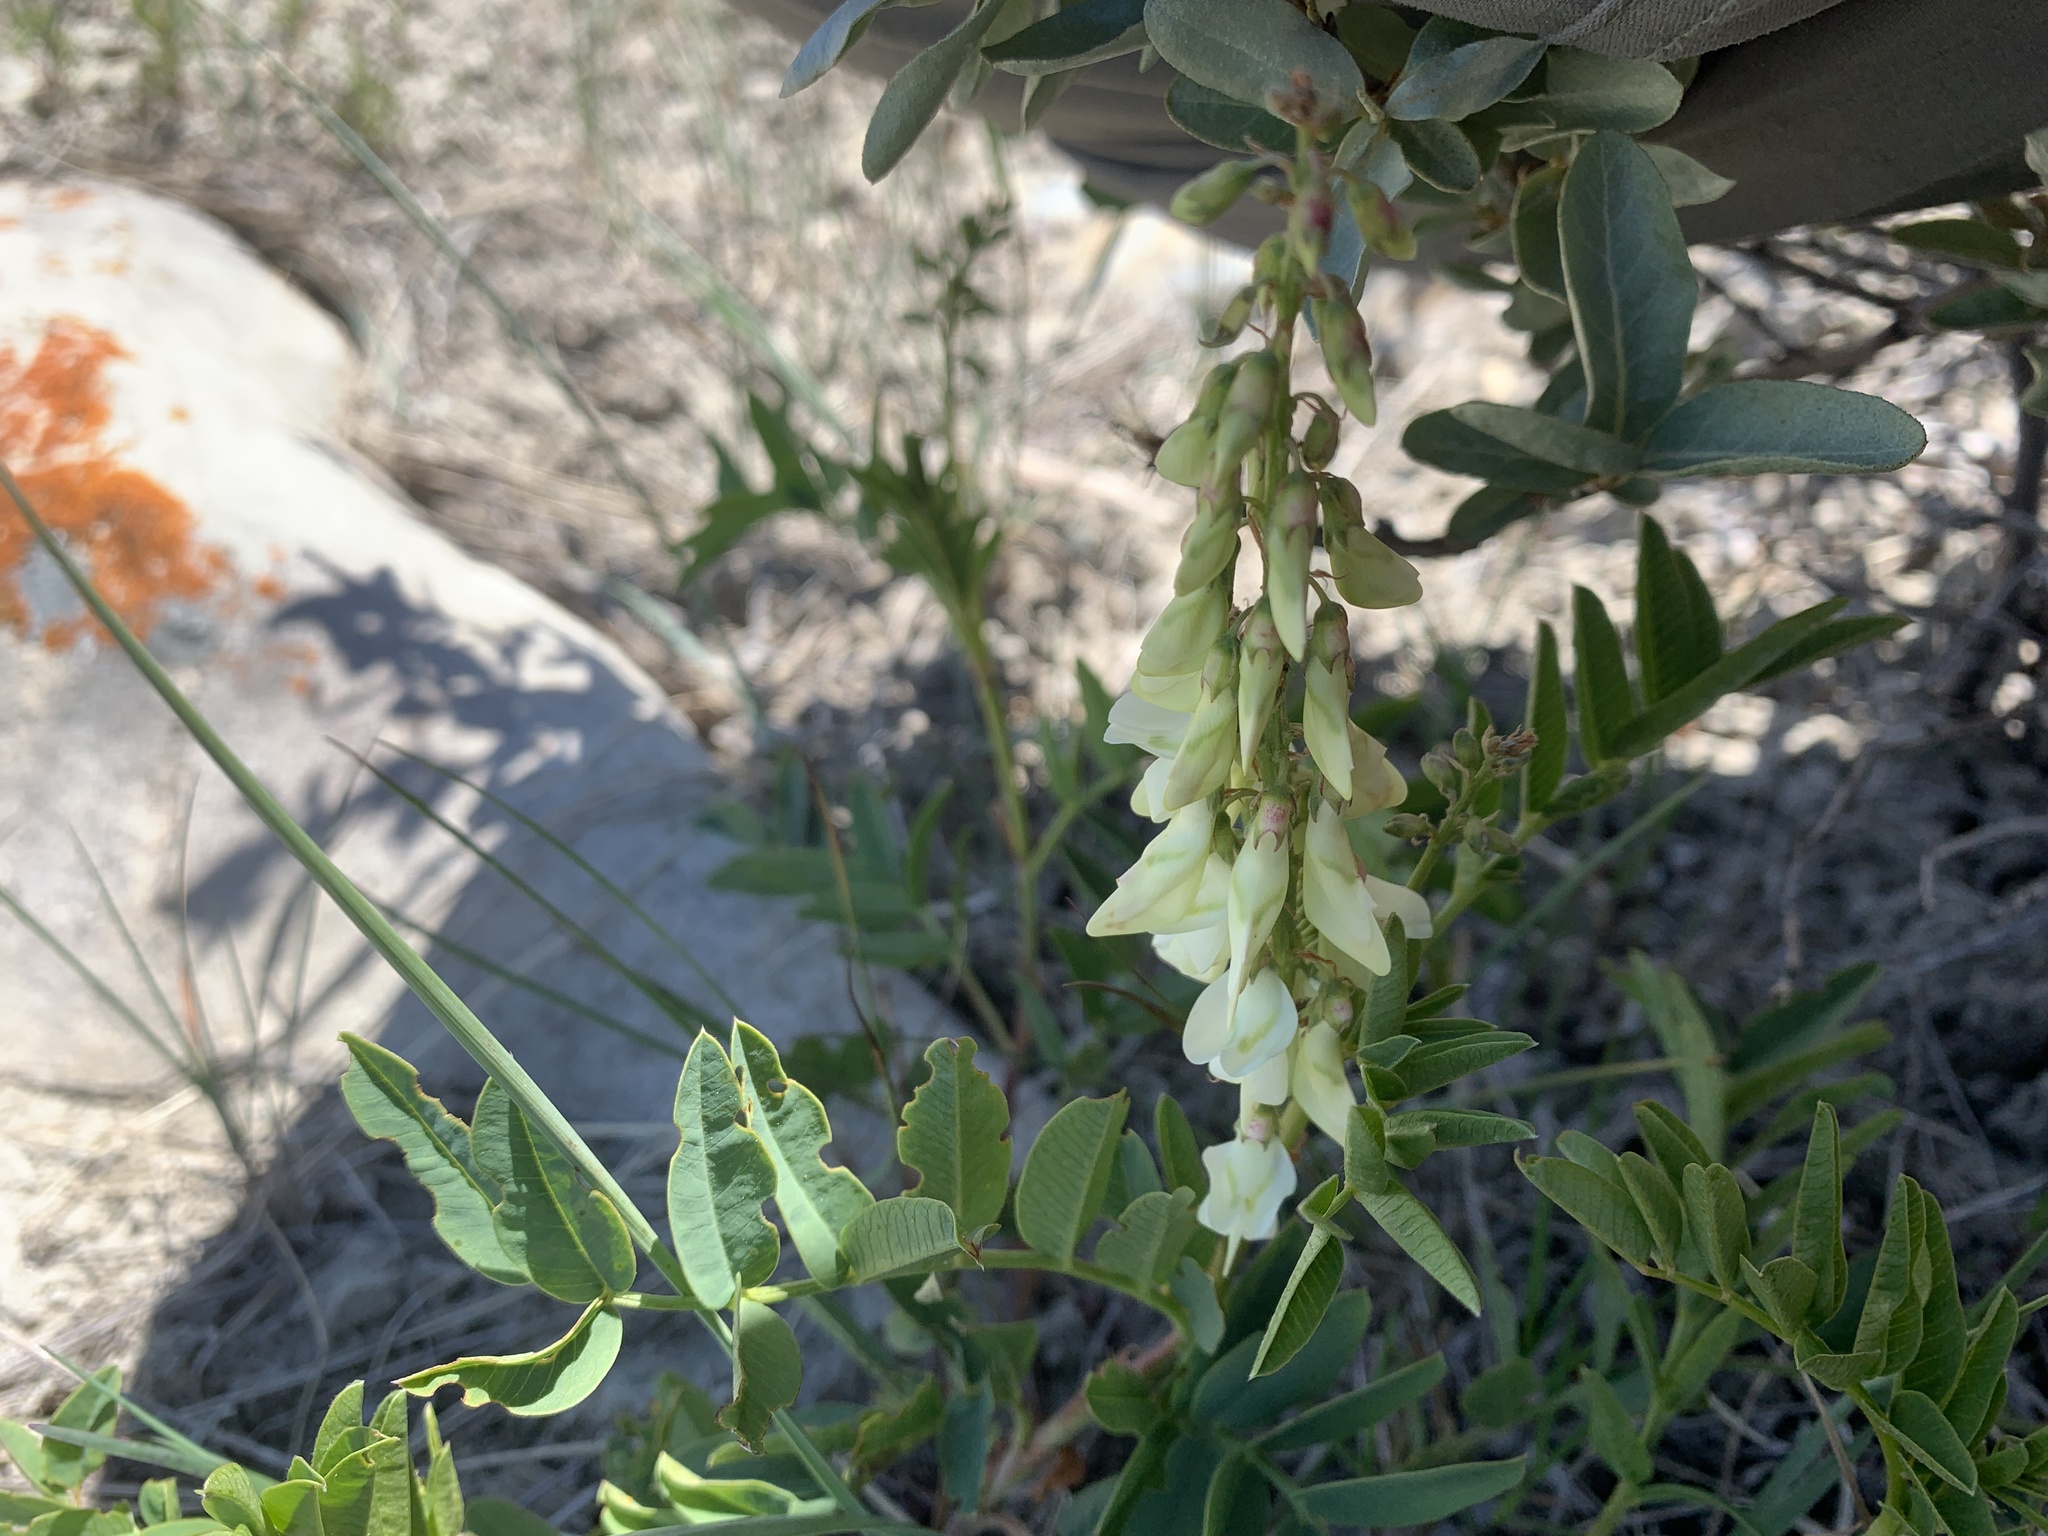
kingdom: Plantae
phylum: Tracheophyta
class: Magnoliopsida
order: Fabales
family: Fabaceae
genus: Hedysarum
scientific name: Hedysarum sulphurescens
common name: Sulphur hedysarum
